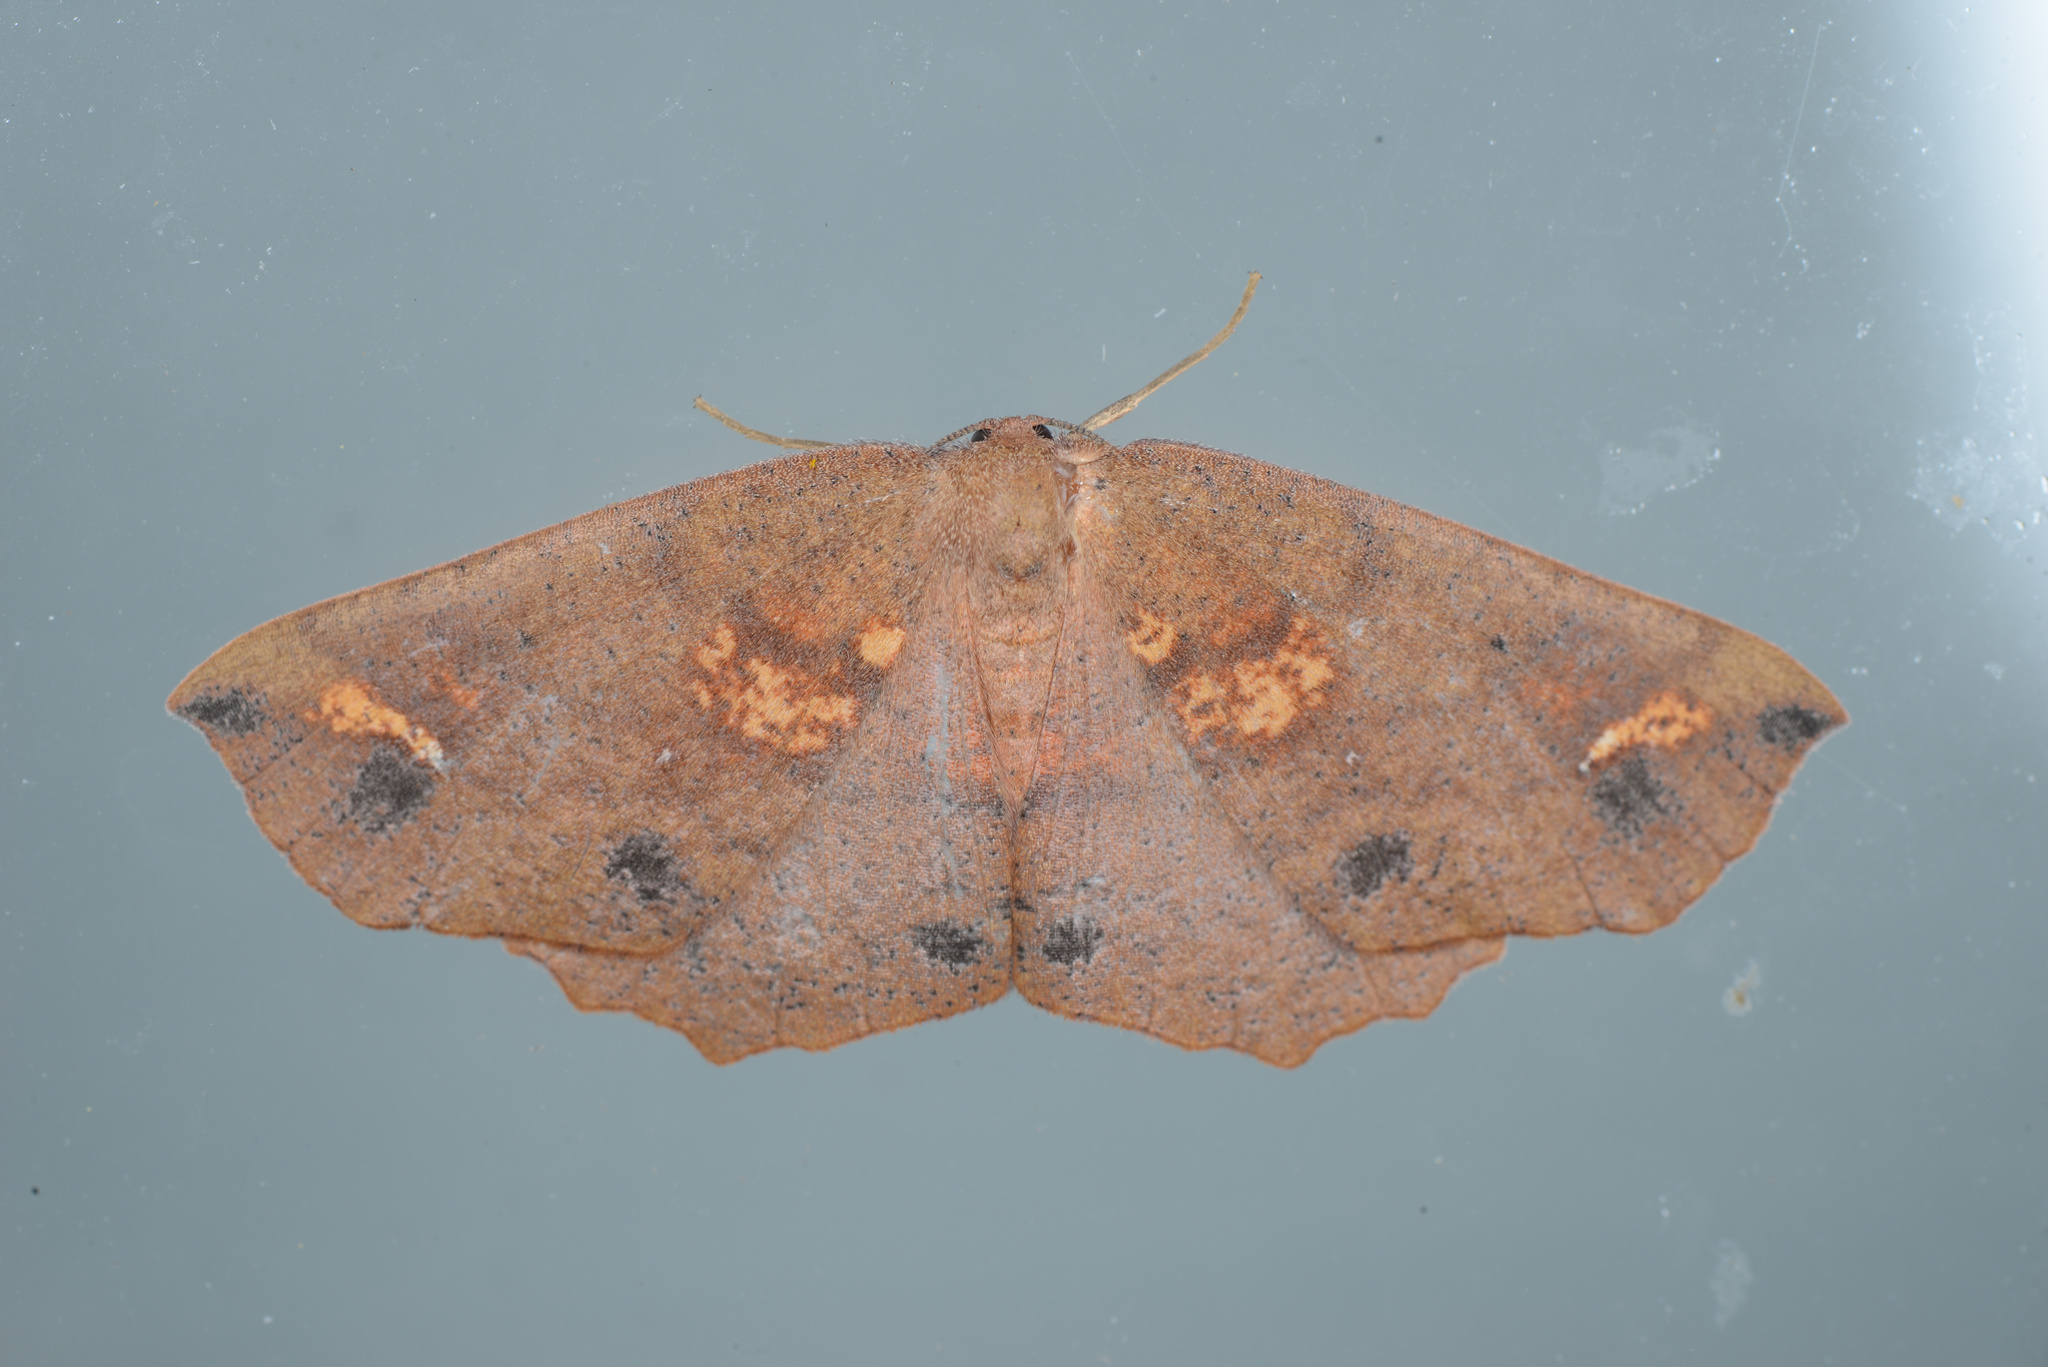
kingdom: Animalia
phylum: Arthropoda
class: Insecta
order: Lepidoptera
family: Geometridae
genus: Xyridacma
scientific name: Xyridacma ustaria
